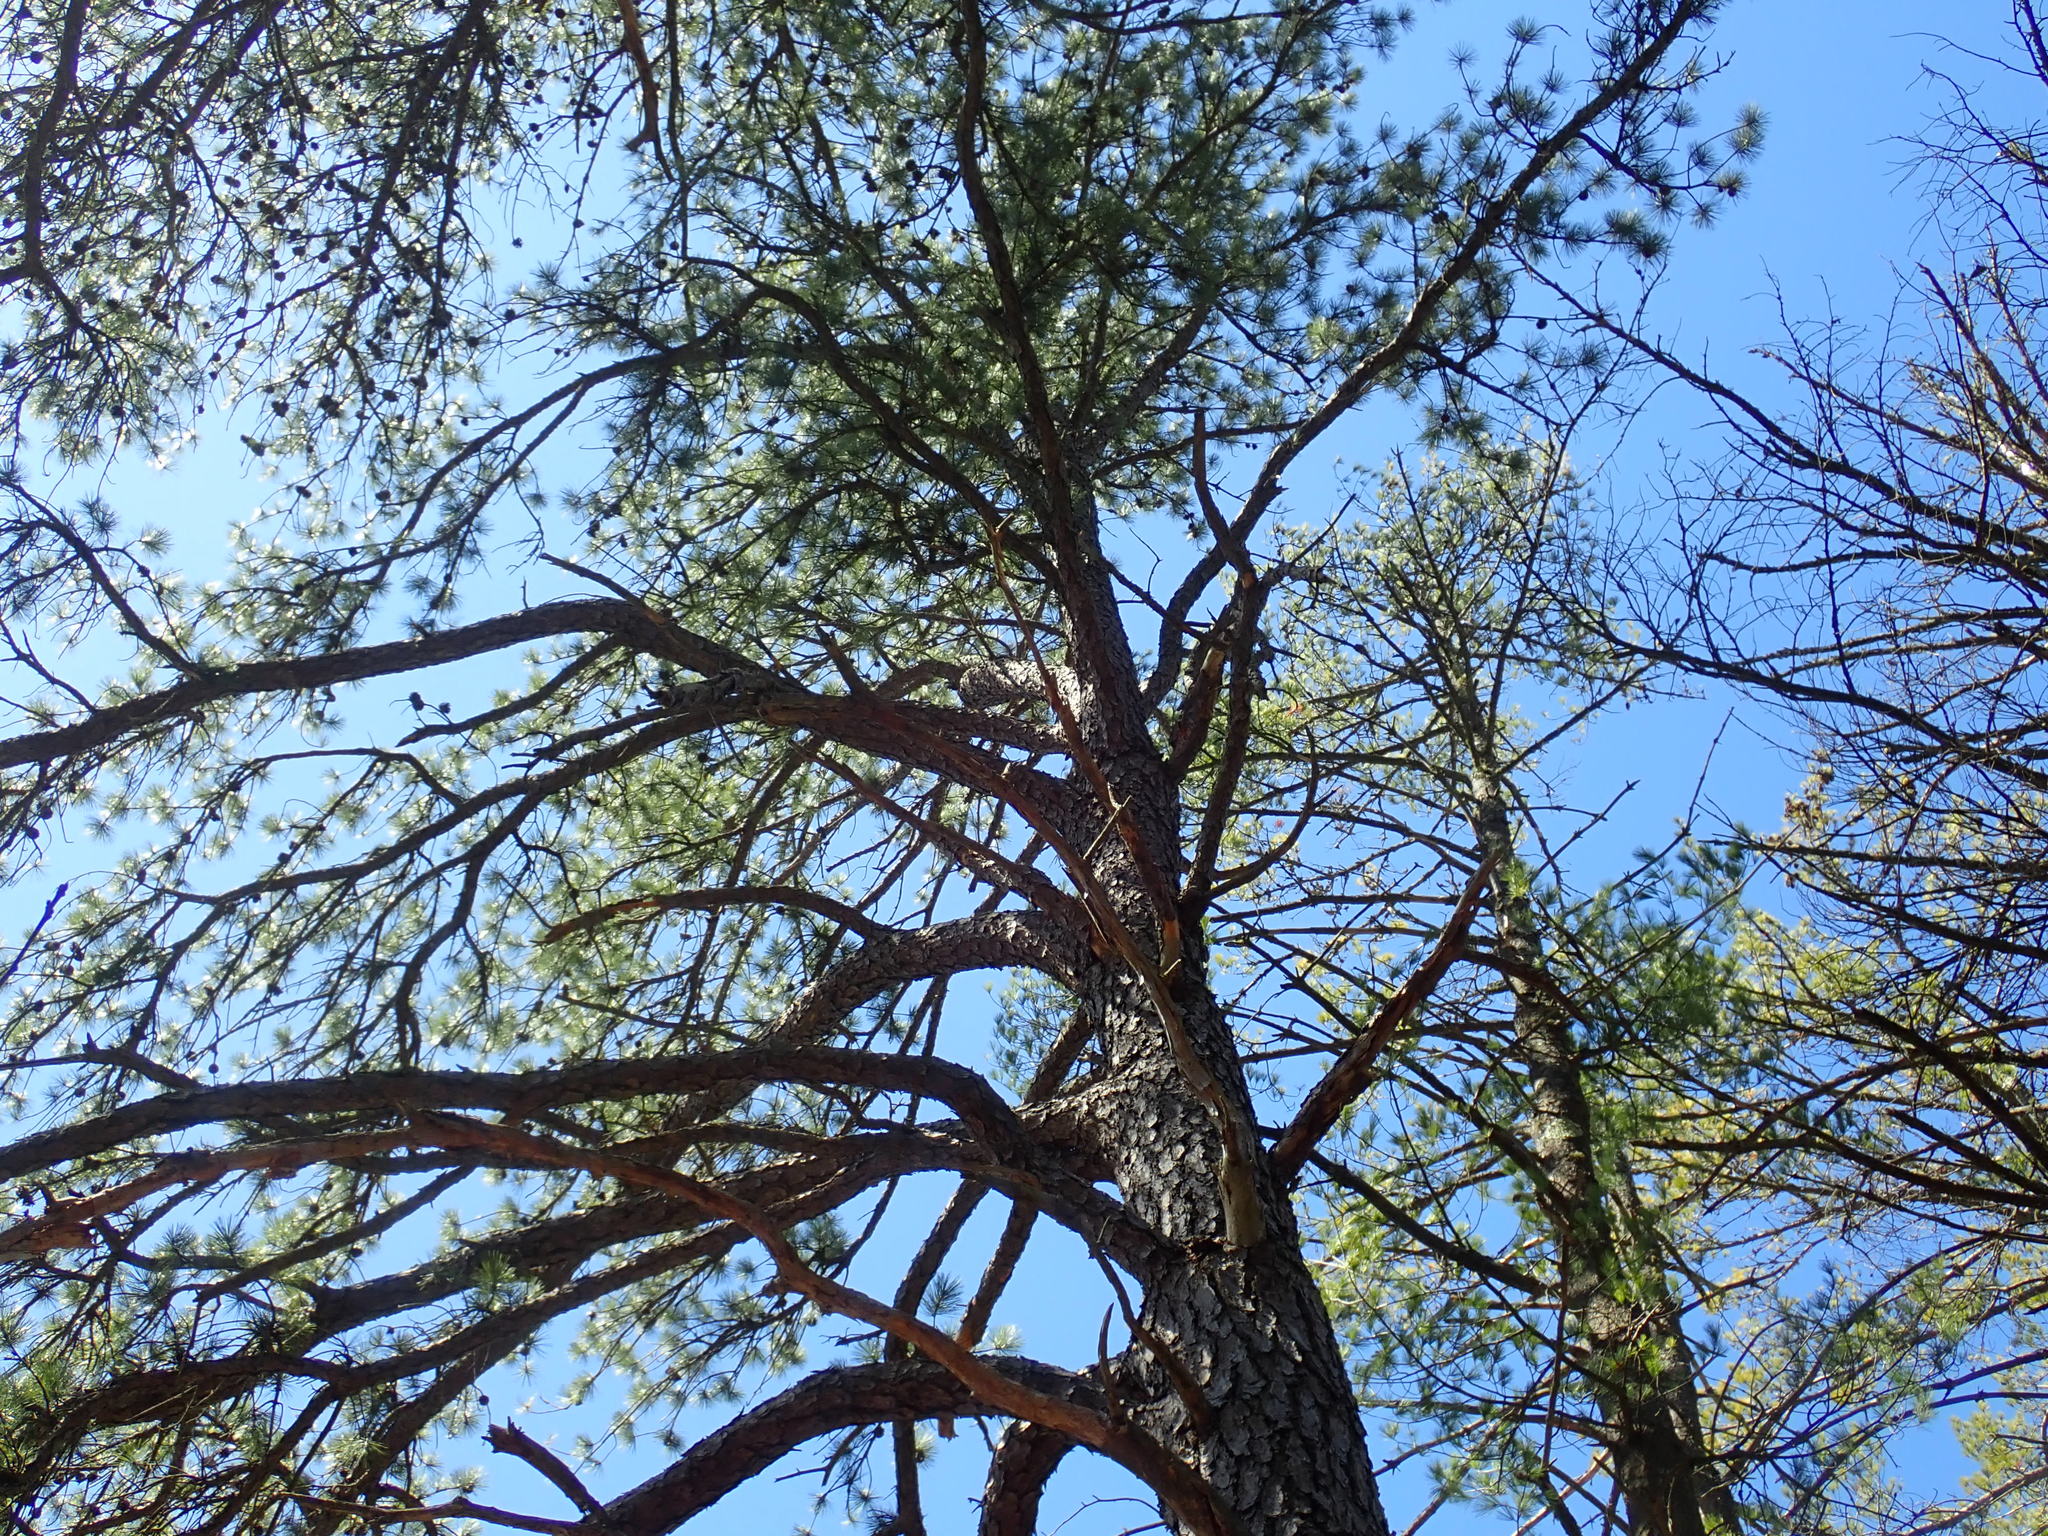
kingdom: Plantae
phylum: Tracheophyta
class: Pinopsida
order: Pinales
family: Pinaceae
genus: Pinus
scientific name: Pinus rigida
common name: Pitch pine
